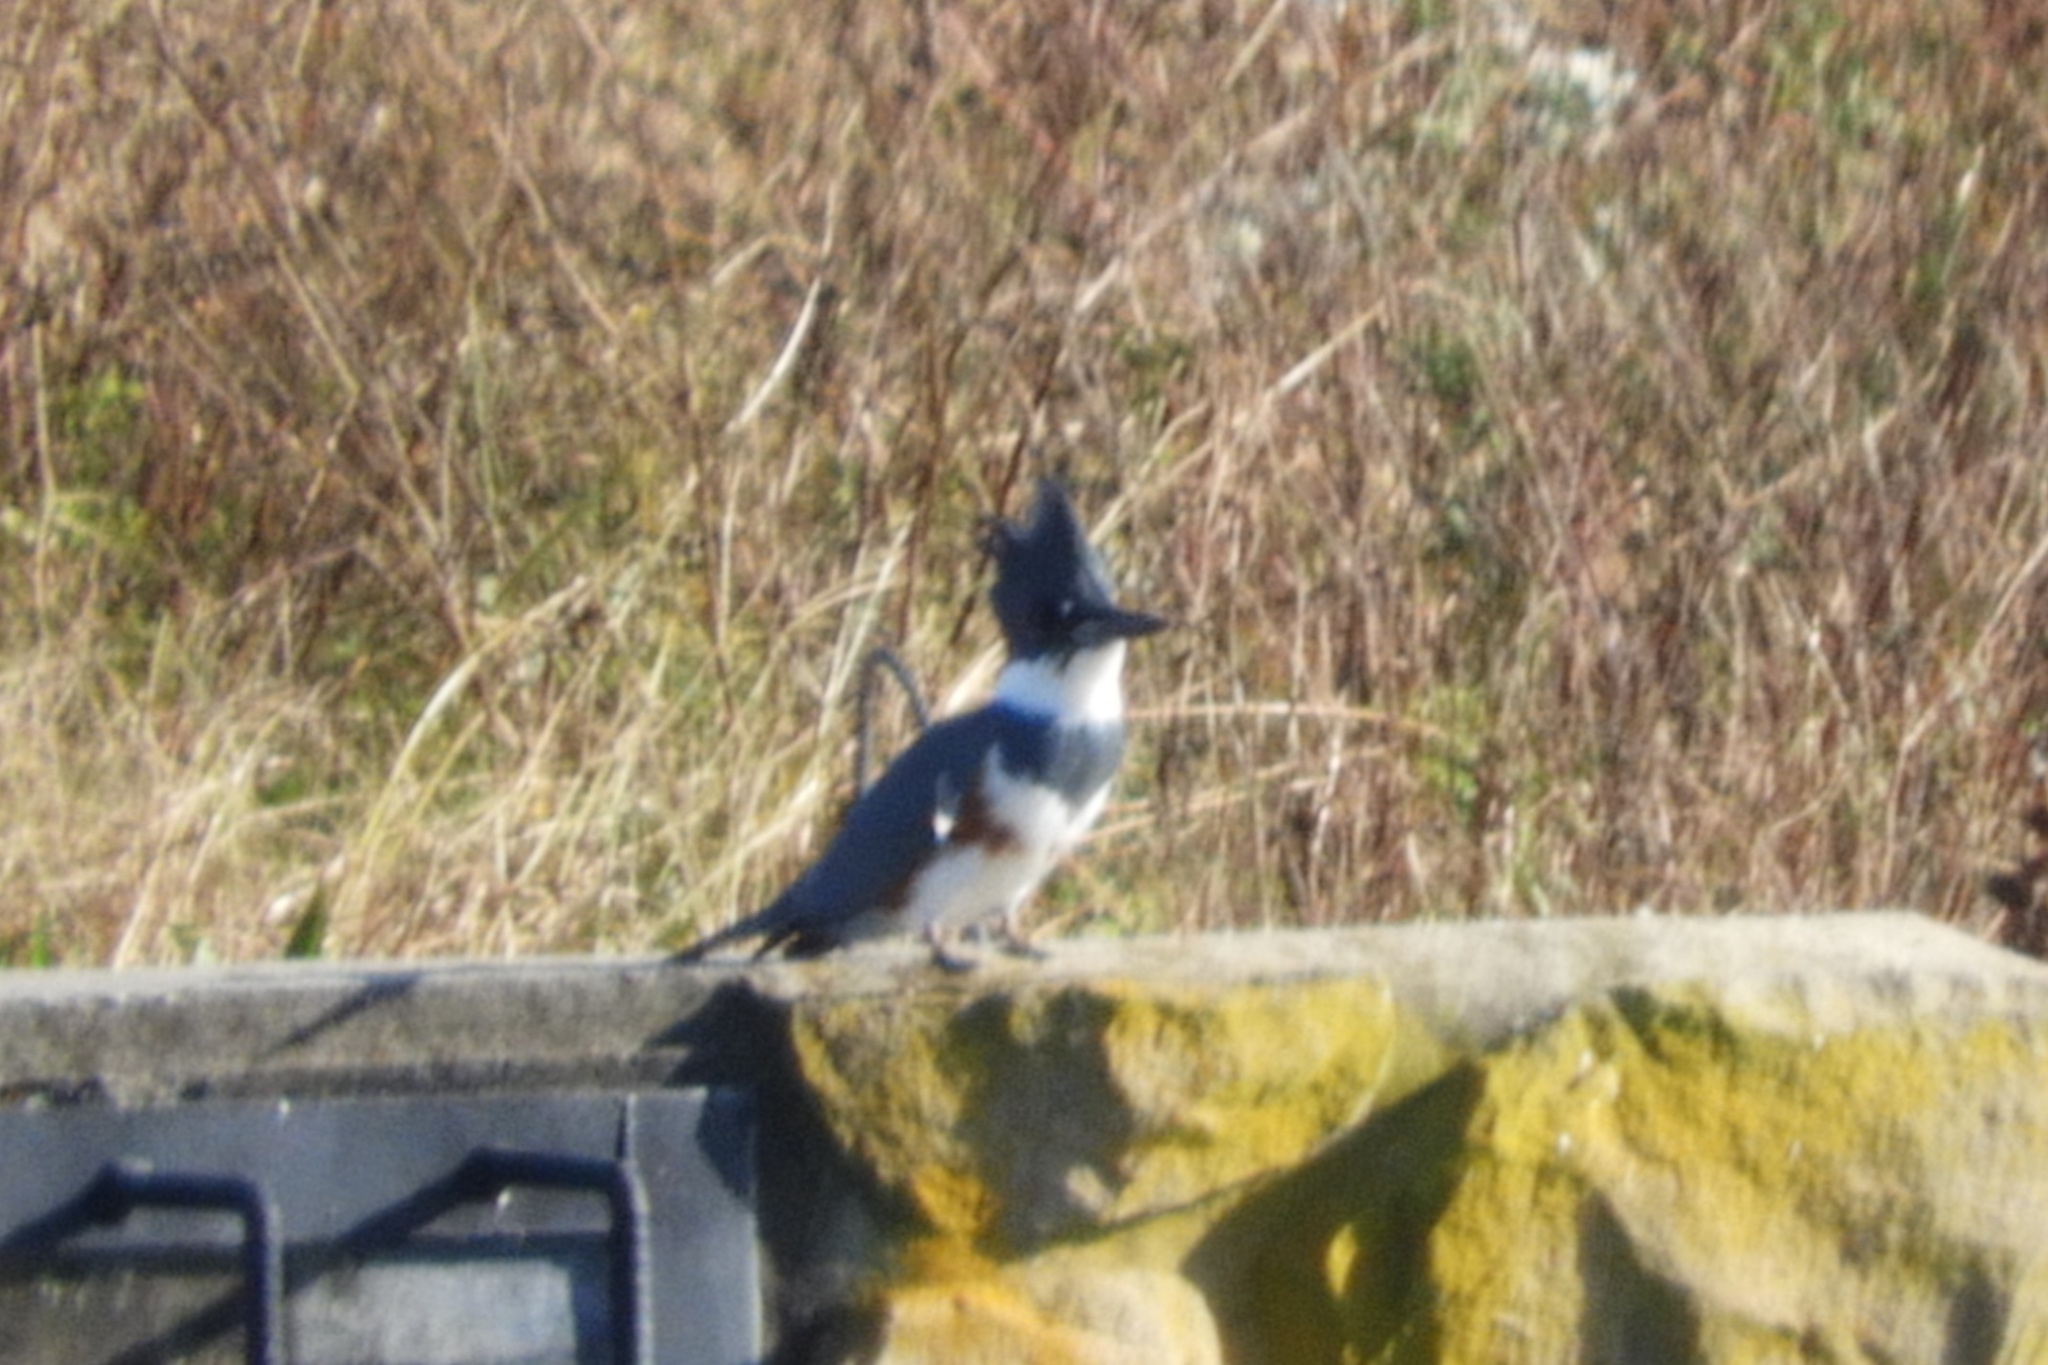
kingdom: Animalia
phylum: Chordata
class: Aves
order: Coraciiformes
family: Alcedinidae
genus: Megaceryle
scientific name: Megaceryle alcyon
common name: Belted kingfisher
